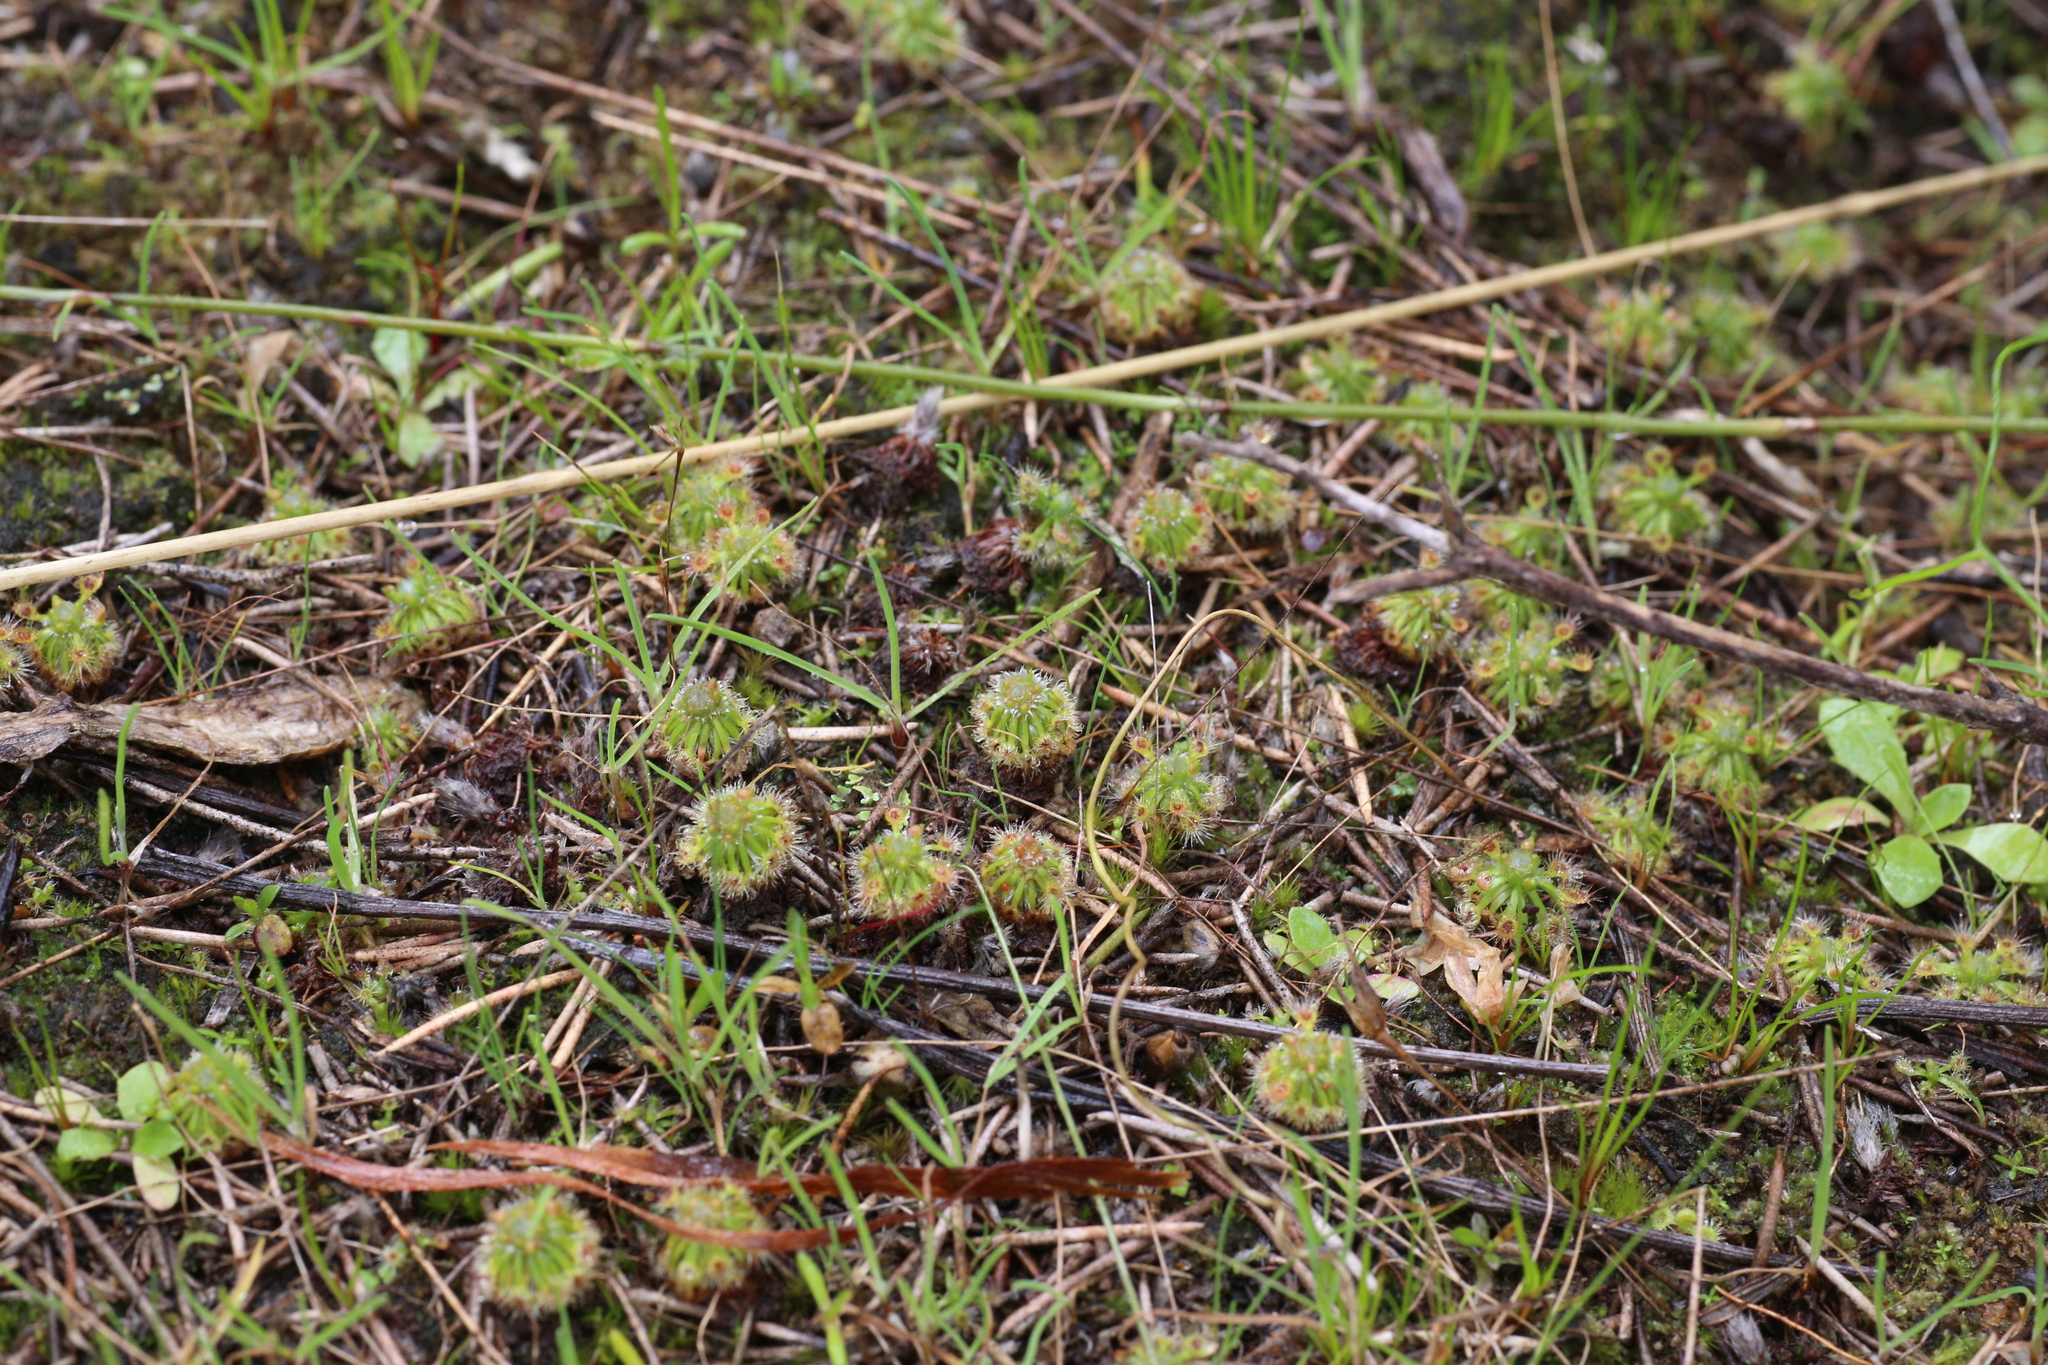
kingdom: Plantae
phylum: Tracheophyta
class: Magnoliopsida
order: Caryophyllales
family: Droseraceae
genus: Drosera
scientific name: Drosera closterostigma
